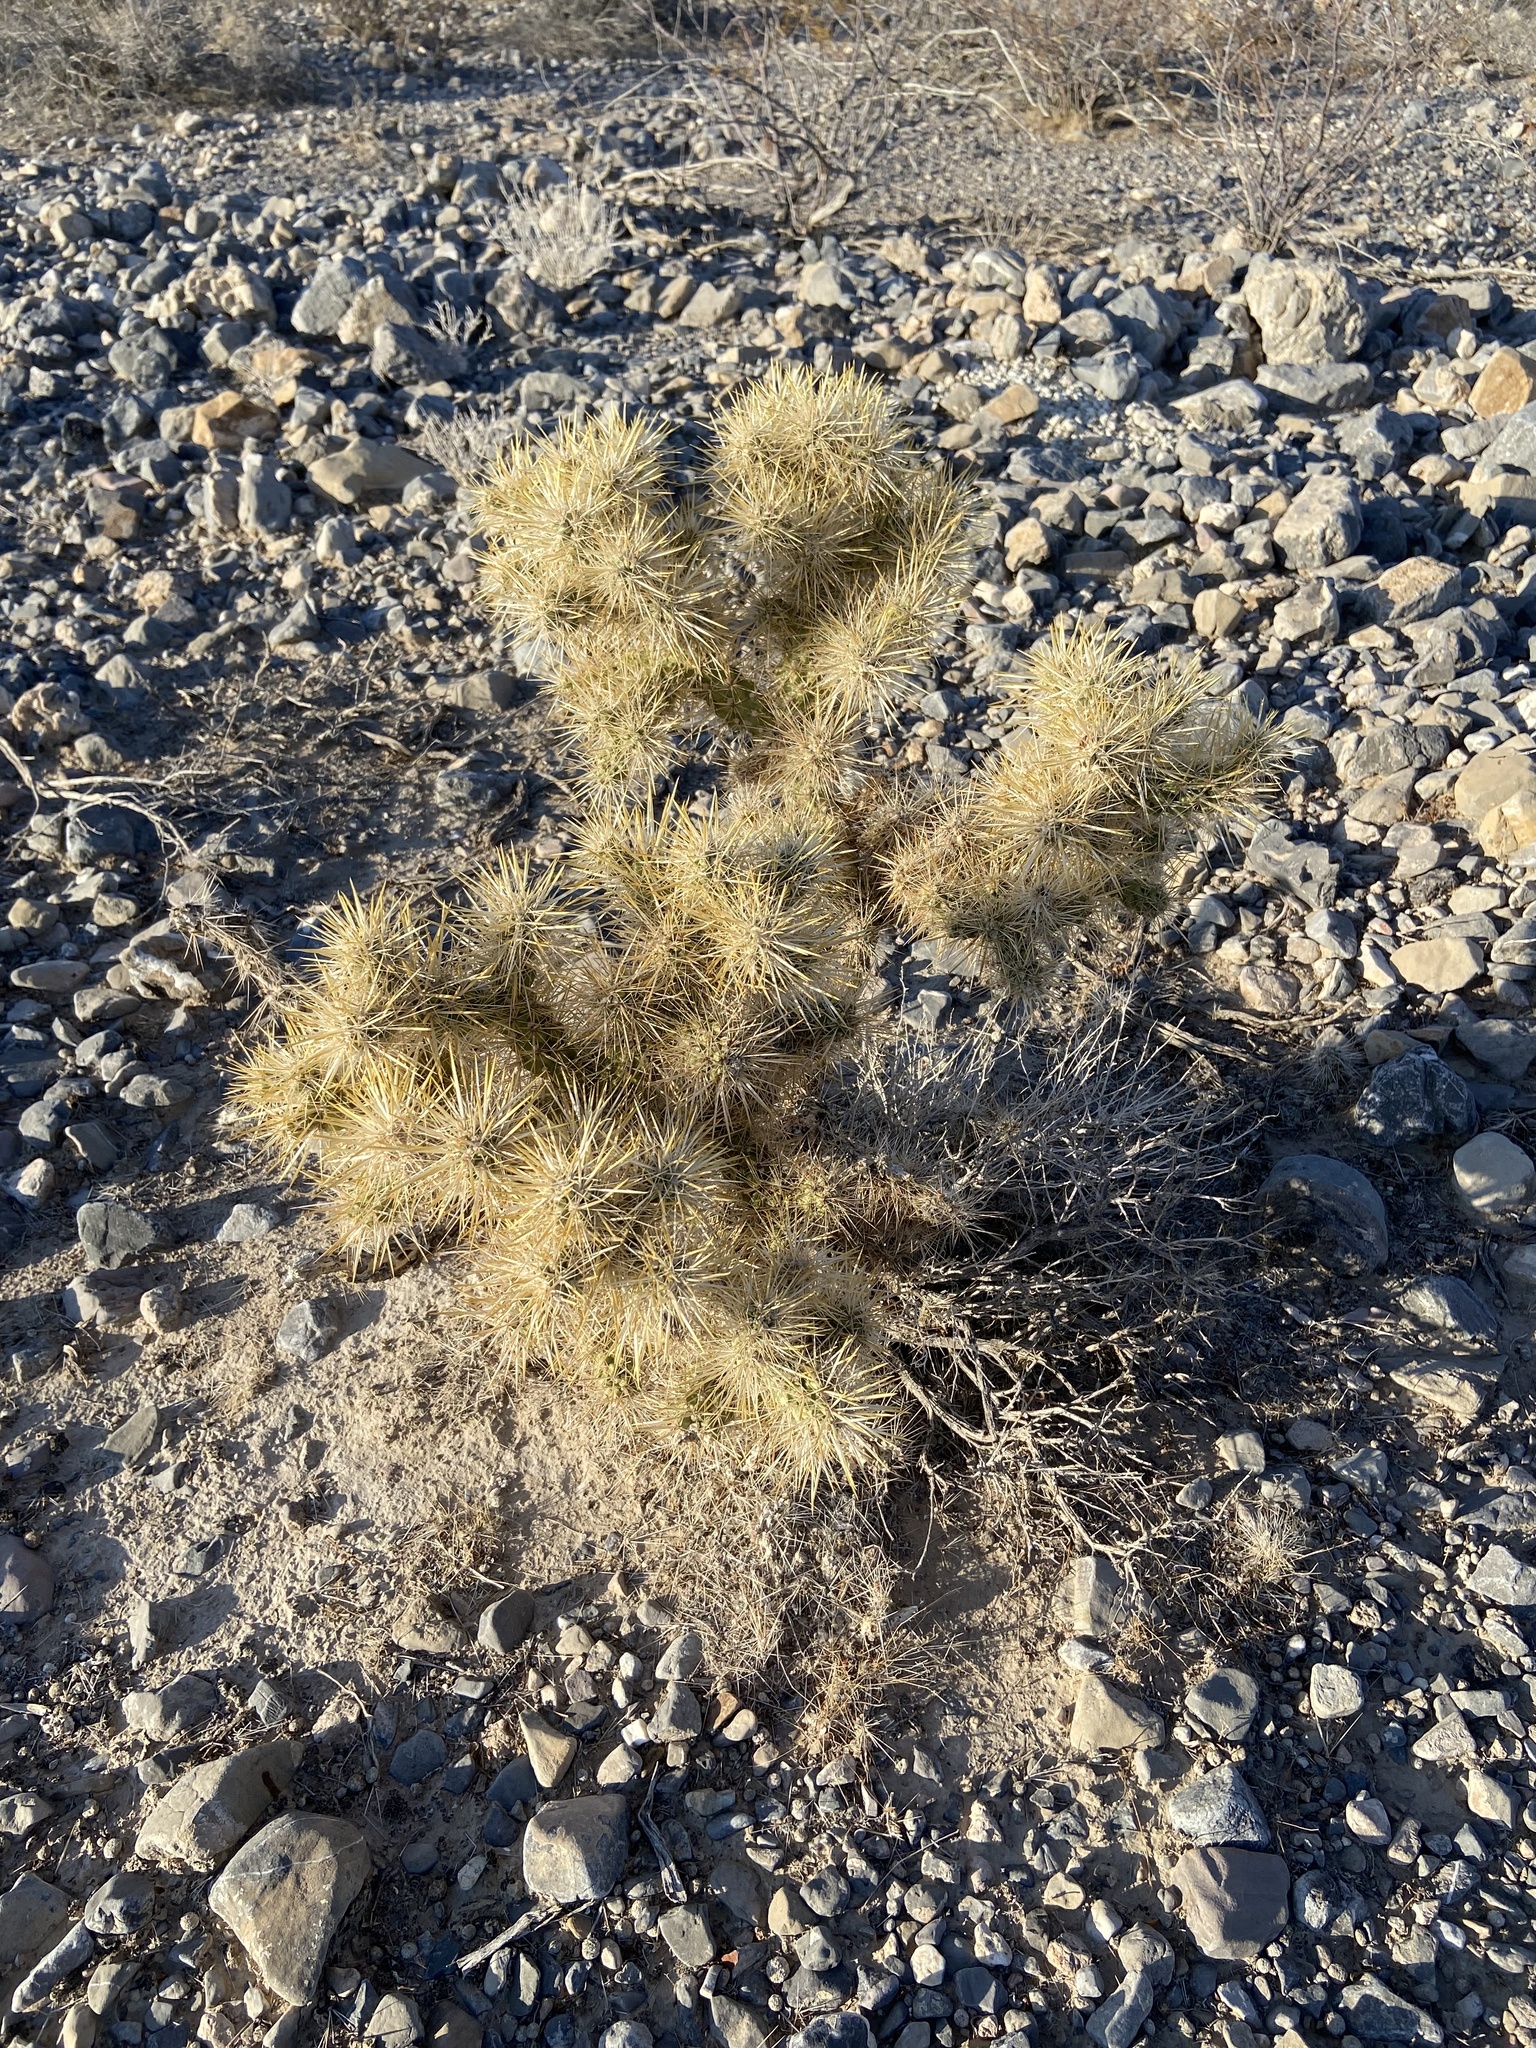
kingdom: Plantae
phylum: Tracheophyta
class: Magnoliopsida
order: Caryophyllales
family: Cactaceae
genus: Cylindropuntia
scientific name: Cylindropuntia echinocarpa
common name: Ground cholla
